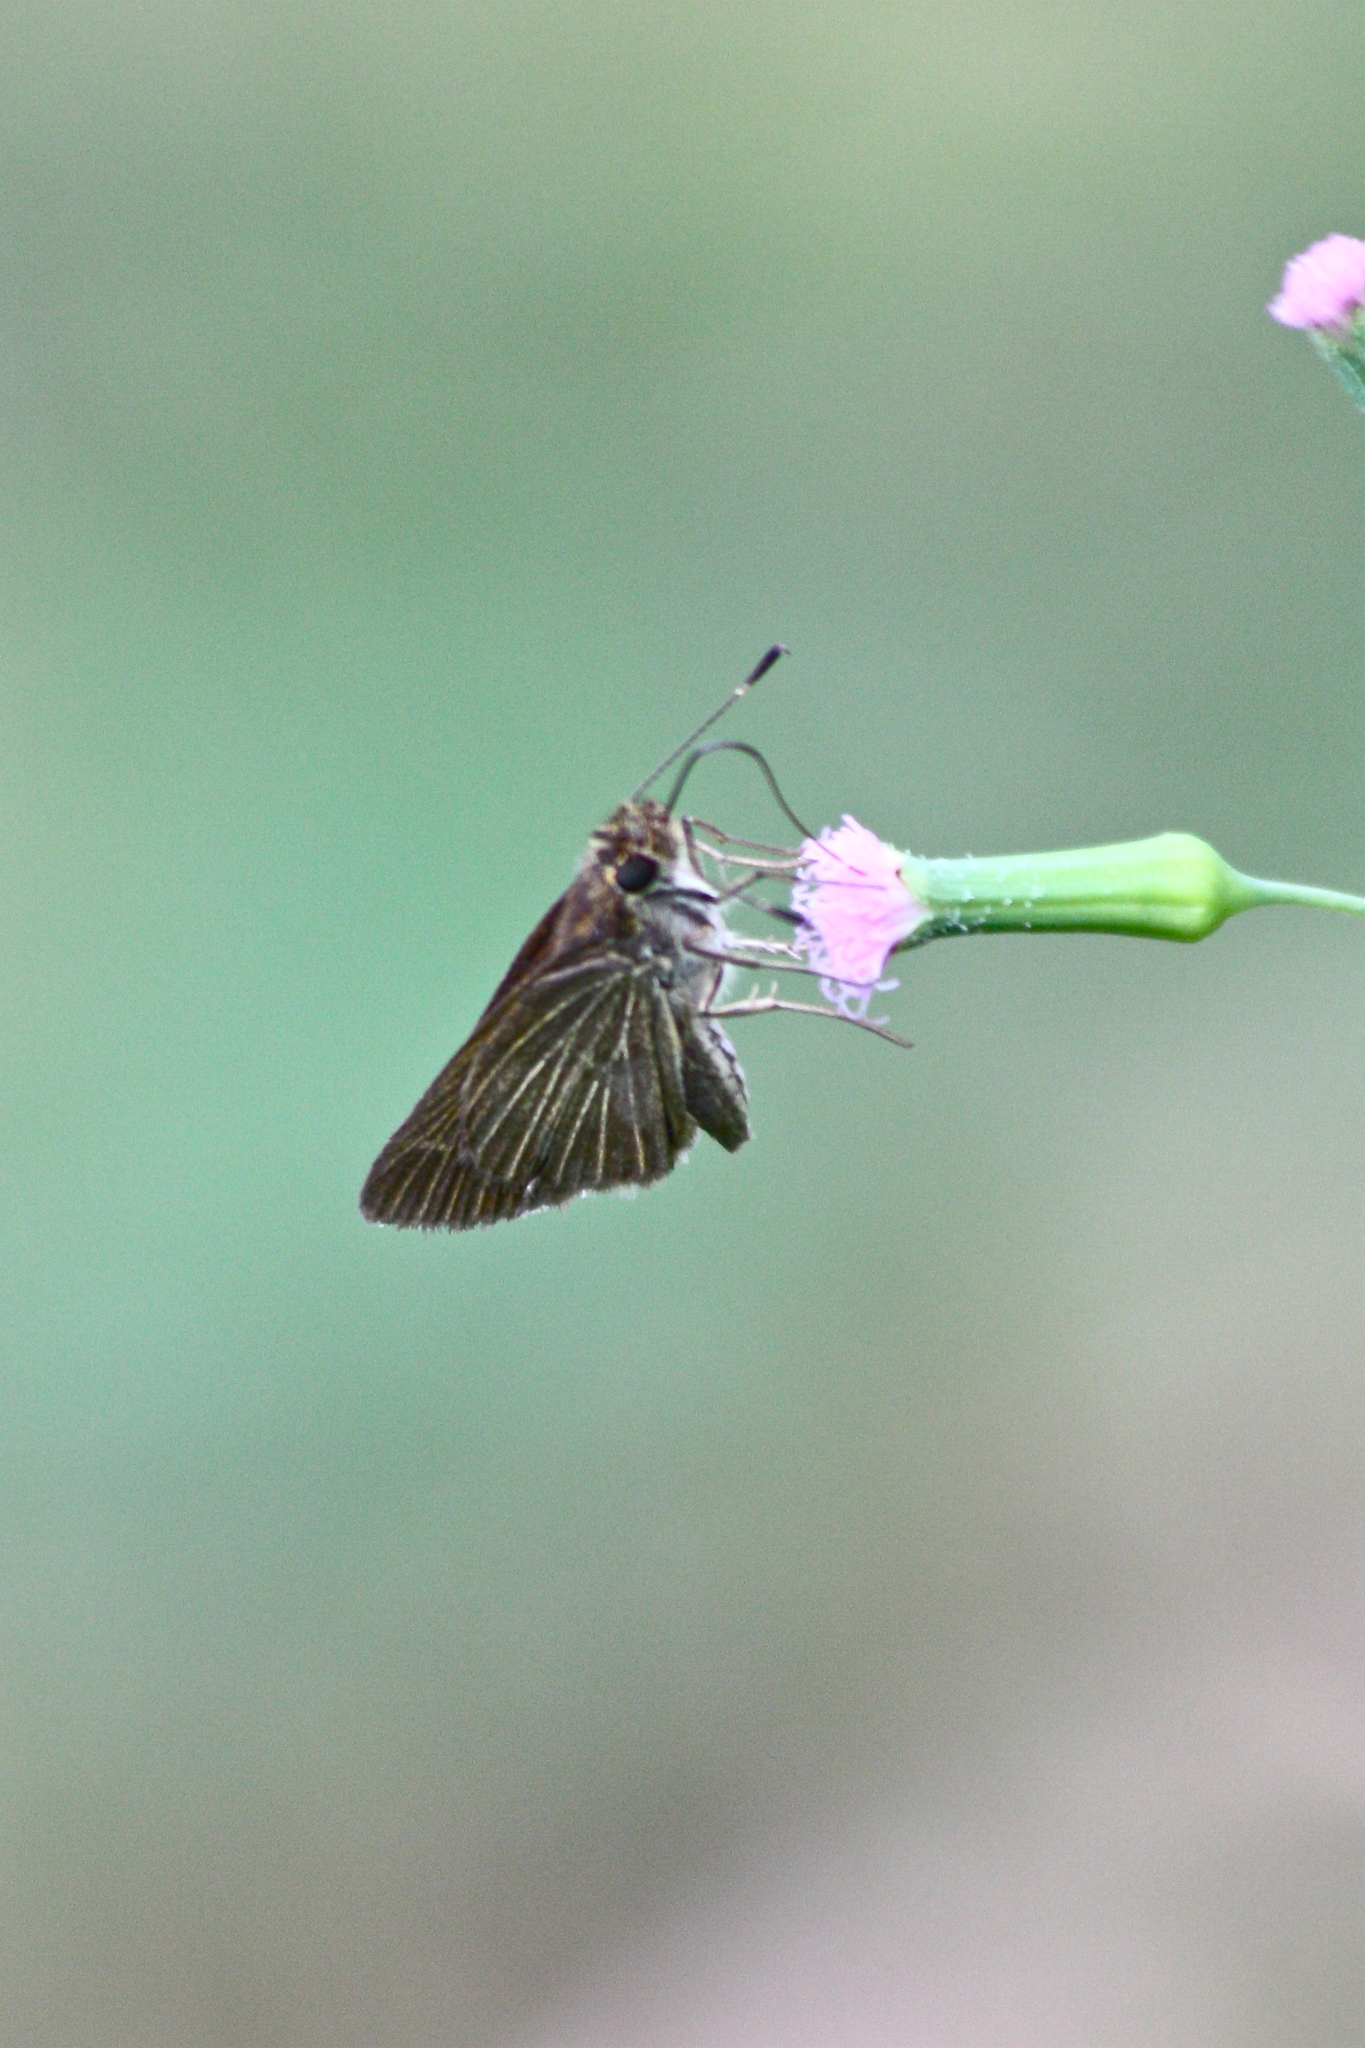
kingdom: Animalia
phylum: Arthropoda
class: Insecta
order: Lepidoptera
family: Hesperiidae
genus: Vehilius
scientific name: Vehilius stictomenes
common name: Pasture skipper
